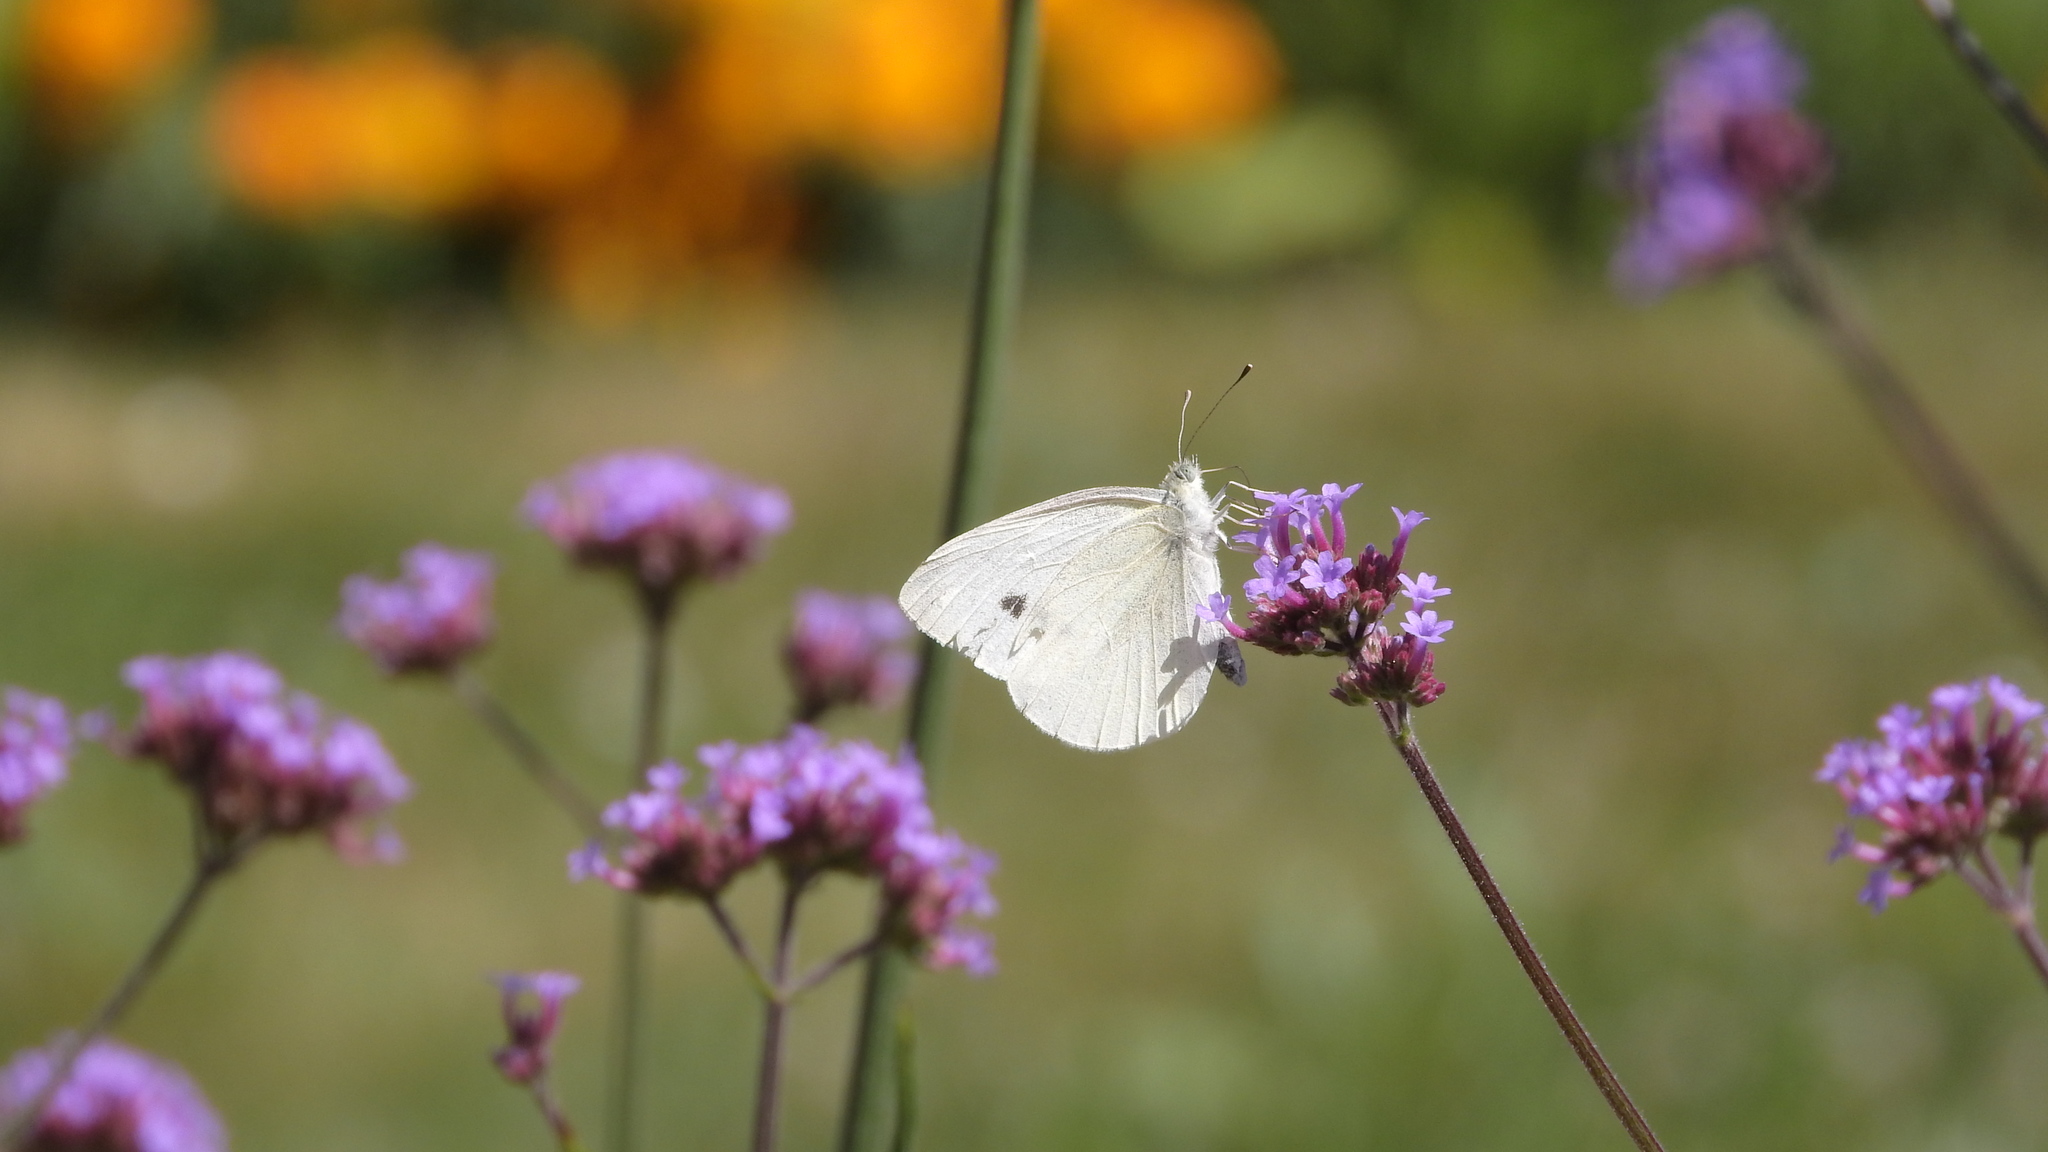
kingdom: Animalia
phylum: Arthropoda
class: Insecta
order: Lepidoptera
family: Pieridae
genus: Pieris
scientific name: Pieris rapae
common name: Small white
